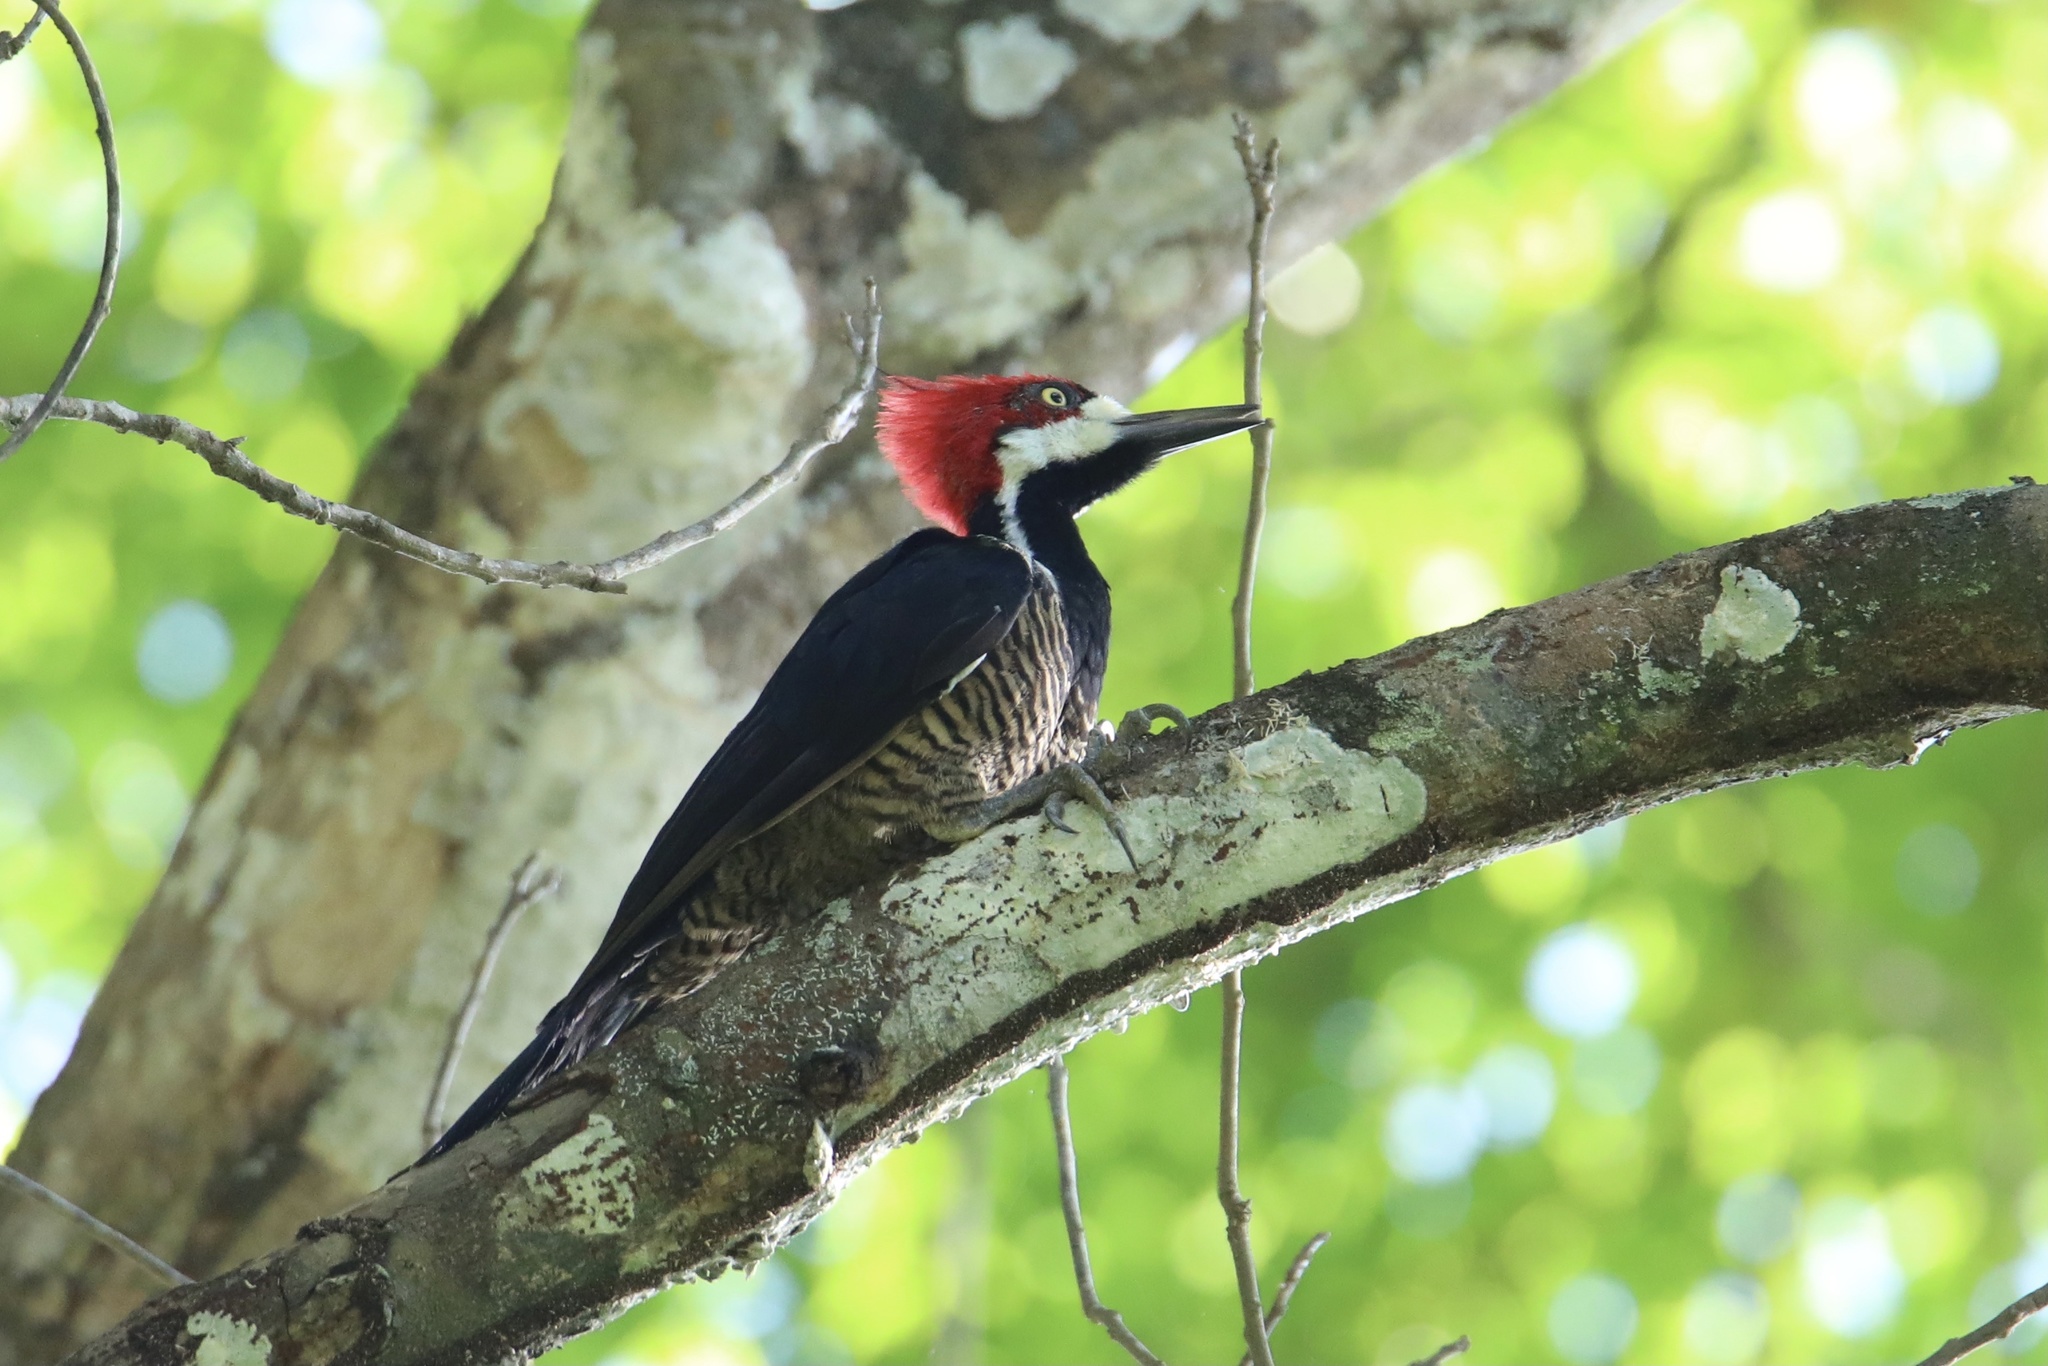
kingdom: Animalia
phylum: Chordata
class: Aves
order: Piciformes
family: Picidae
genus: Campephilus
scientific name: Campephilus melanoleucos
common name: Crimson-crested woodpecker
